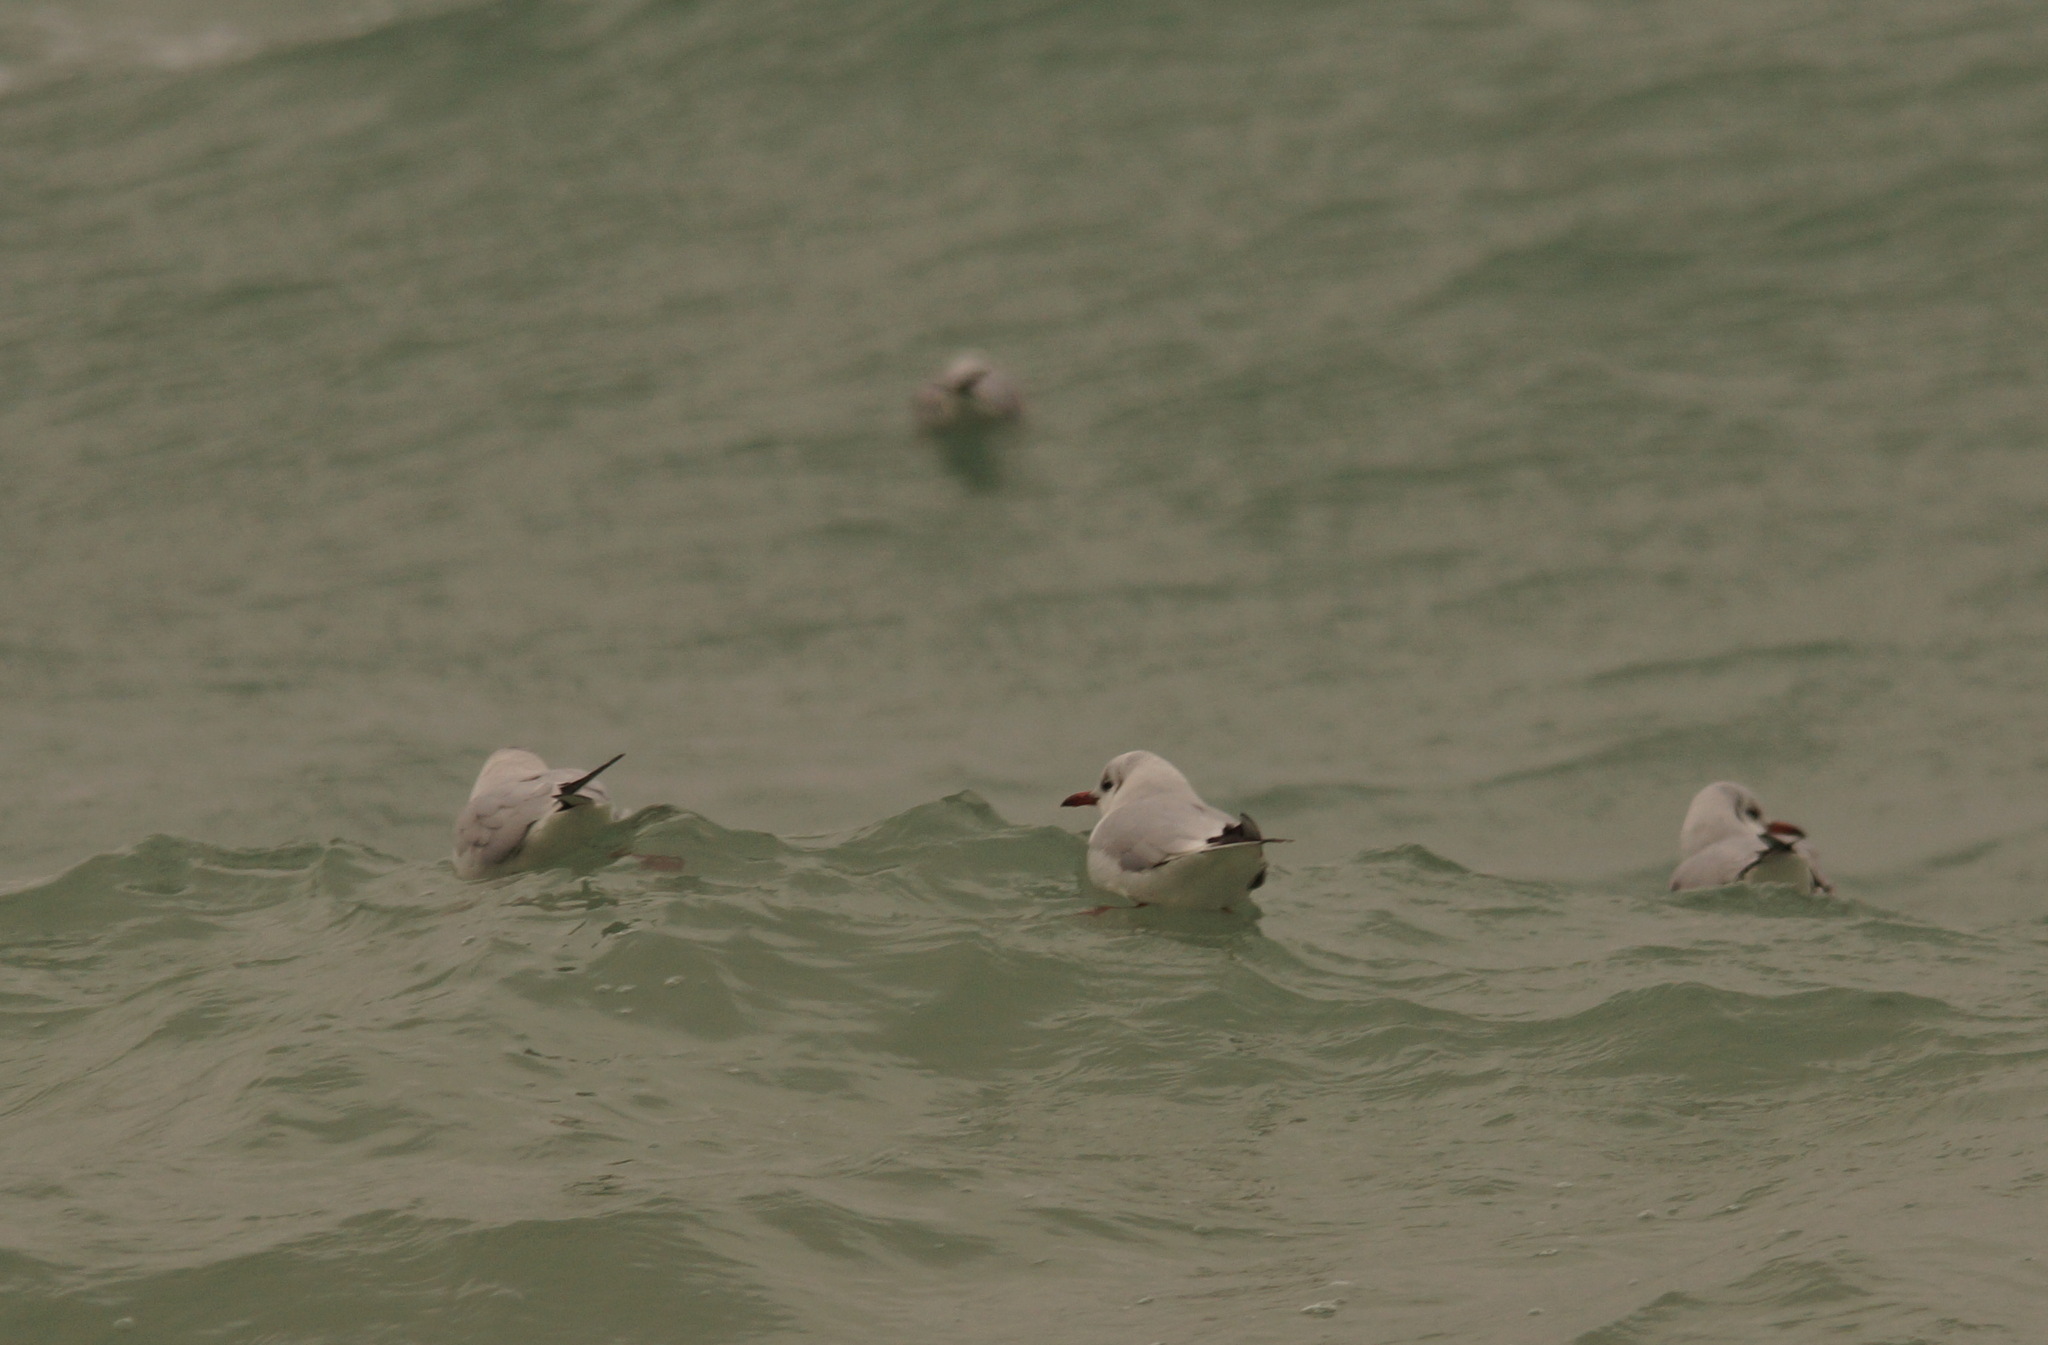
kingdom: Animalia
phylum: Chordata
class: Aves
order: Charadriiformes
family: Laridae
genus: Chroicocephalus
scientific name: Chroicocephalus ridibundus
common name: Black-headed gull
